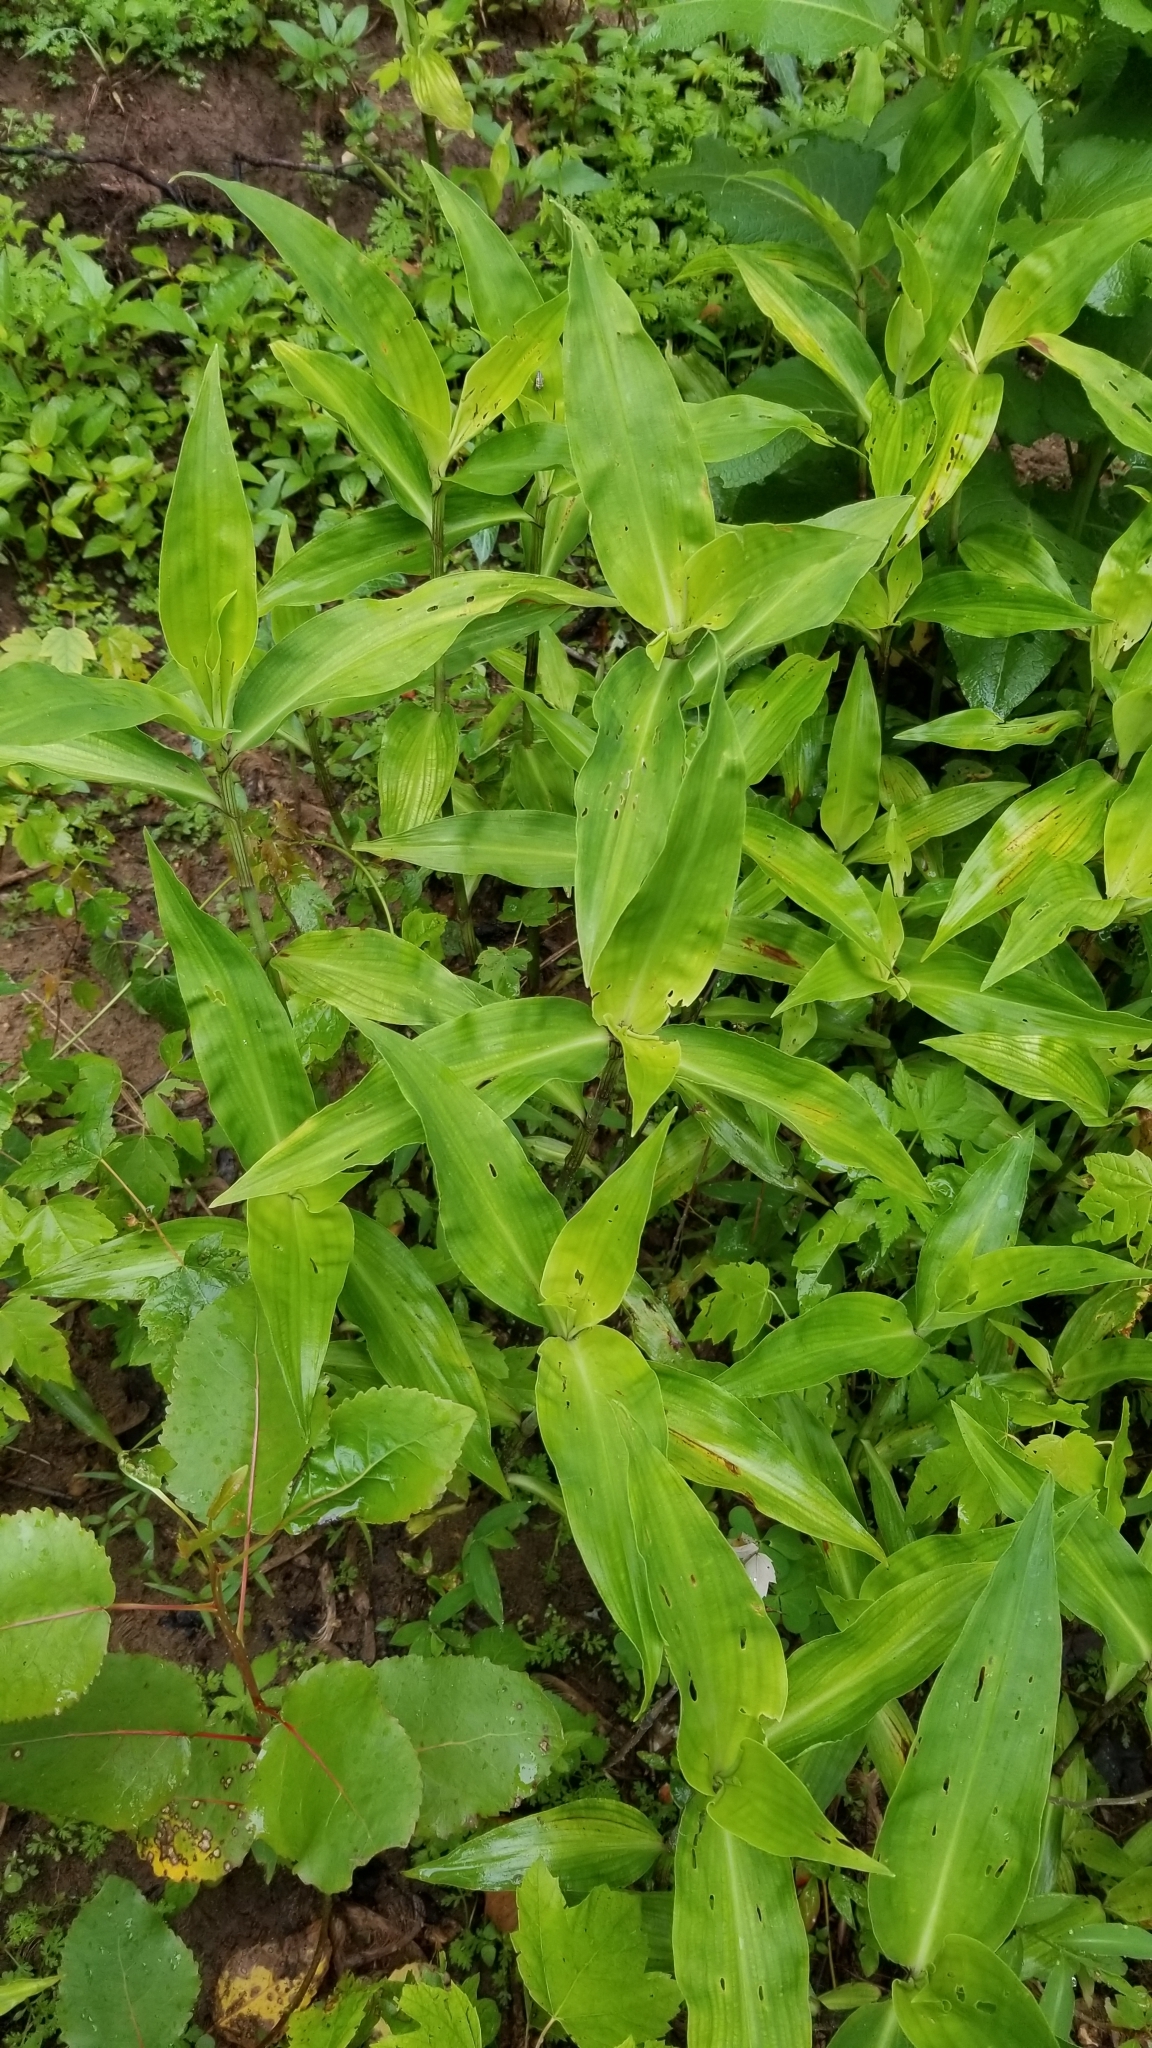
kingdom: Plantae
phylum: Tracheophyta
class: Liliopsida
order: Commelinales
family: Commelinaceae
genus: Commelina
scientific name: Commelina virginica
